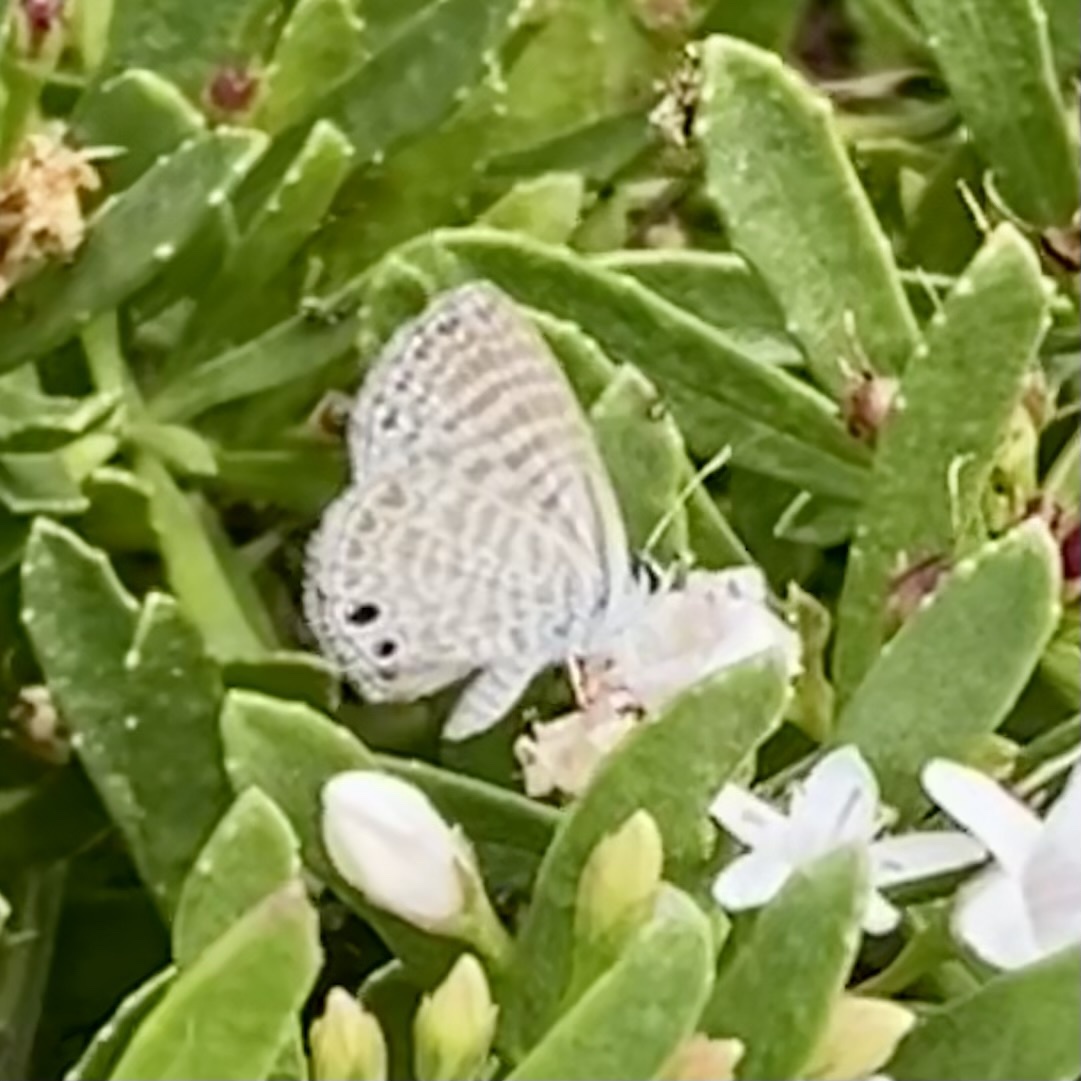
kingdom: Animalia
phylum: Arthropoda
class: Insecta
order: Lepidoptera
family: Lycaenidae
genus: Leptotes
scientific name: Leptotes marina
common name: Marine blue
